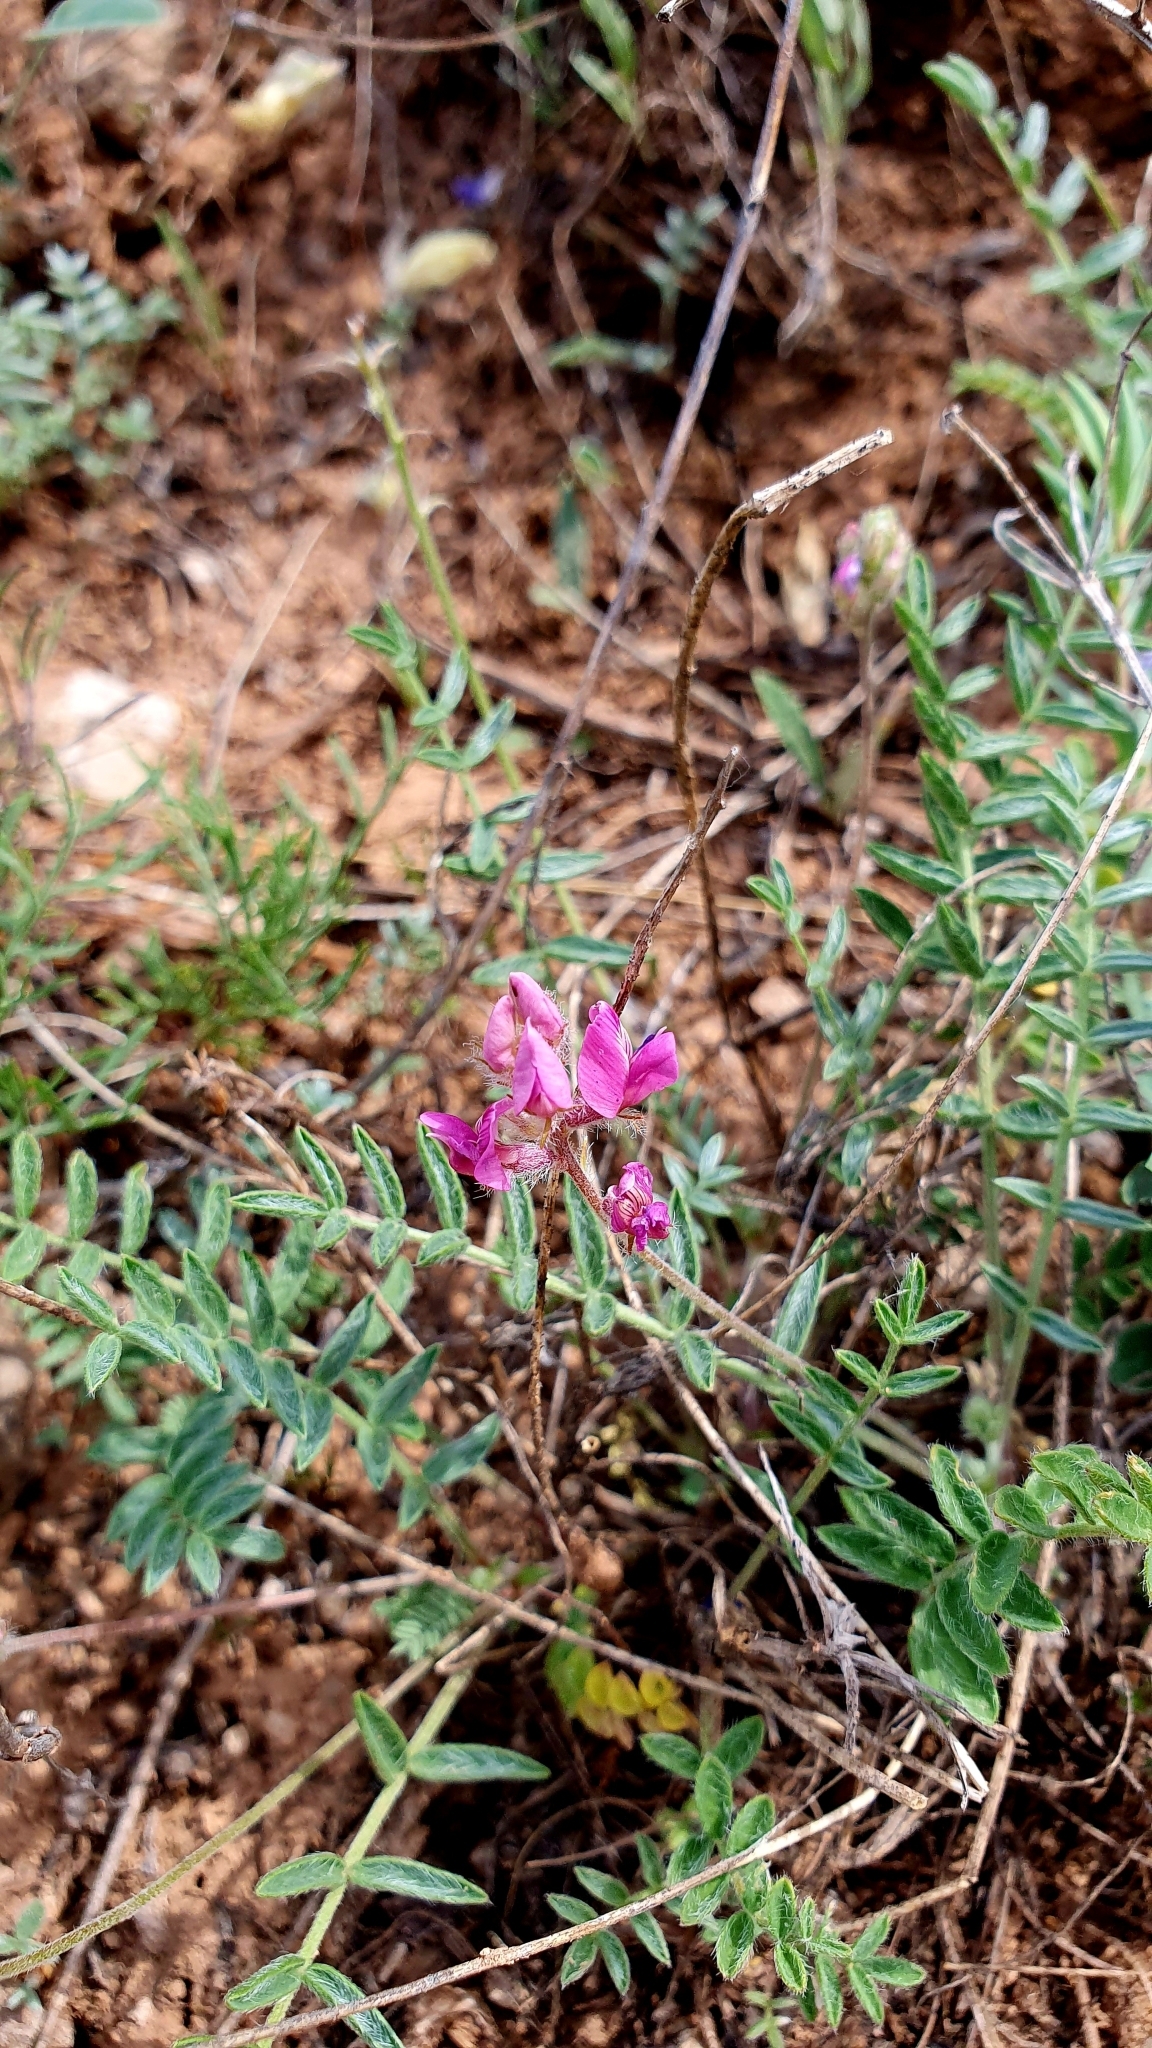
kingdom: Plantae
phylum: Tracheophyta
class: Magnoliopsida
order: Fabales
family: Fabaceae
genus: Oxytropis
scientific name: Oxytropis floribunda
